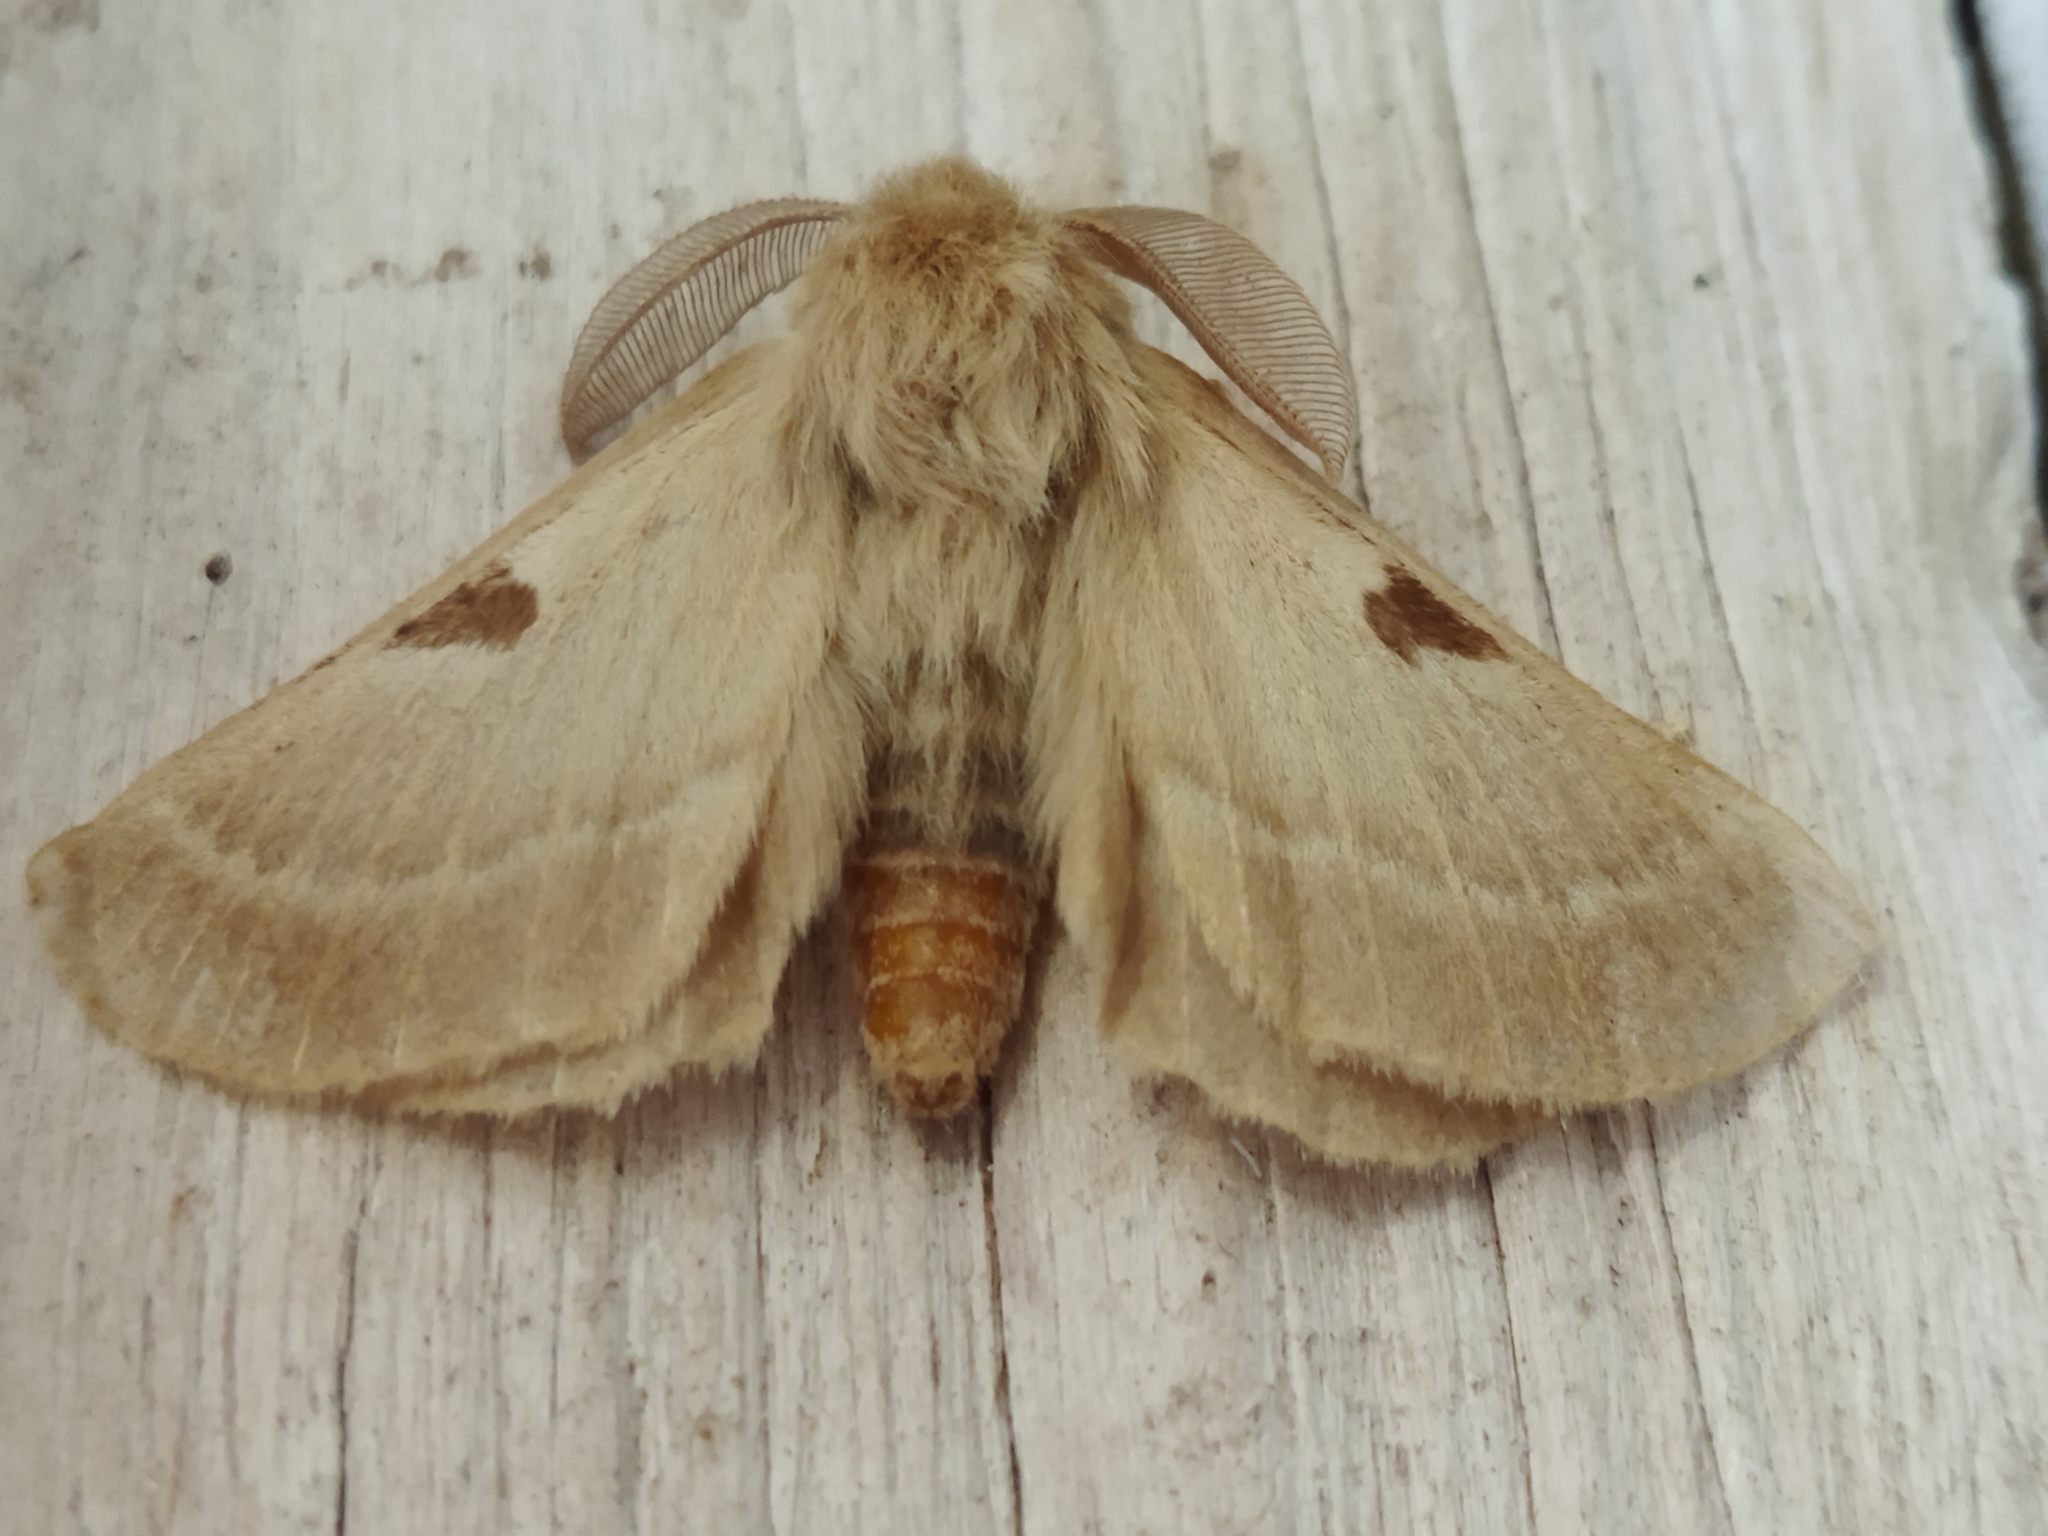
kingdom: Animalia
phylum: Arthropoda
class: Insecta
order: Lepidoptera
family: Brahmaeidae
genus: Lemonia
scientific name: Lemonia balcanica
